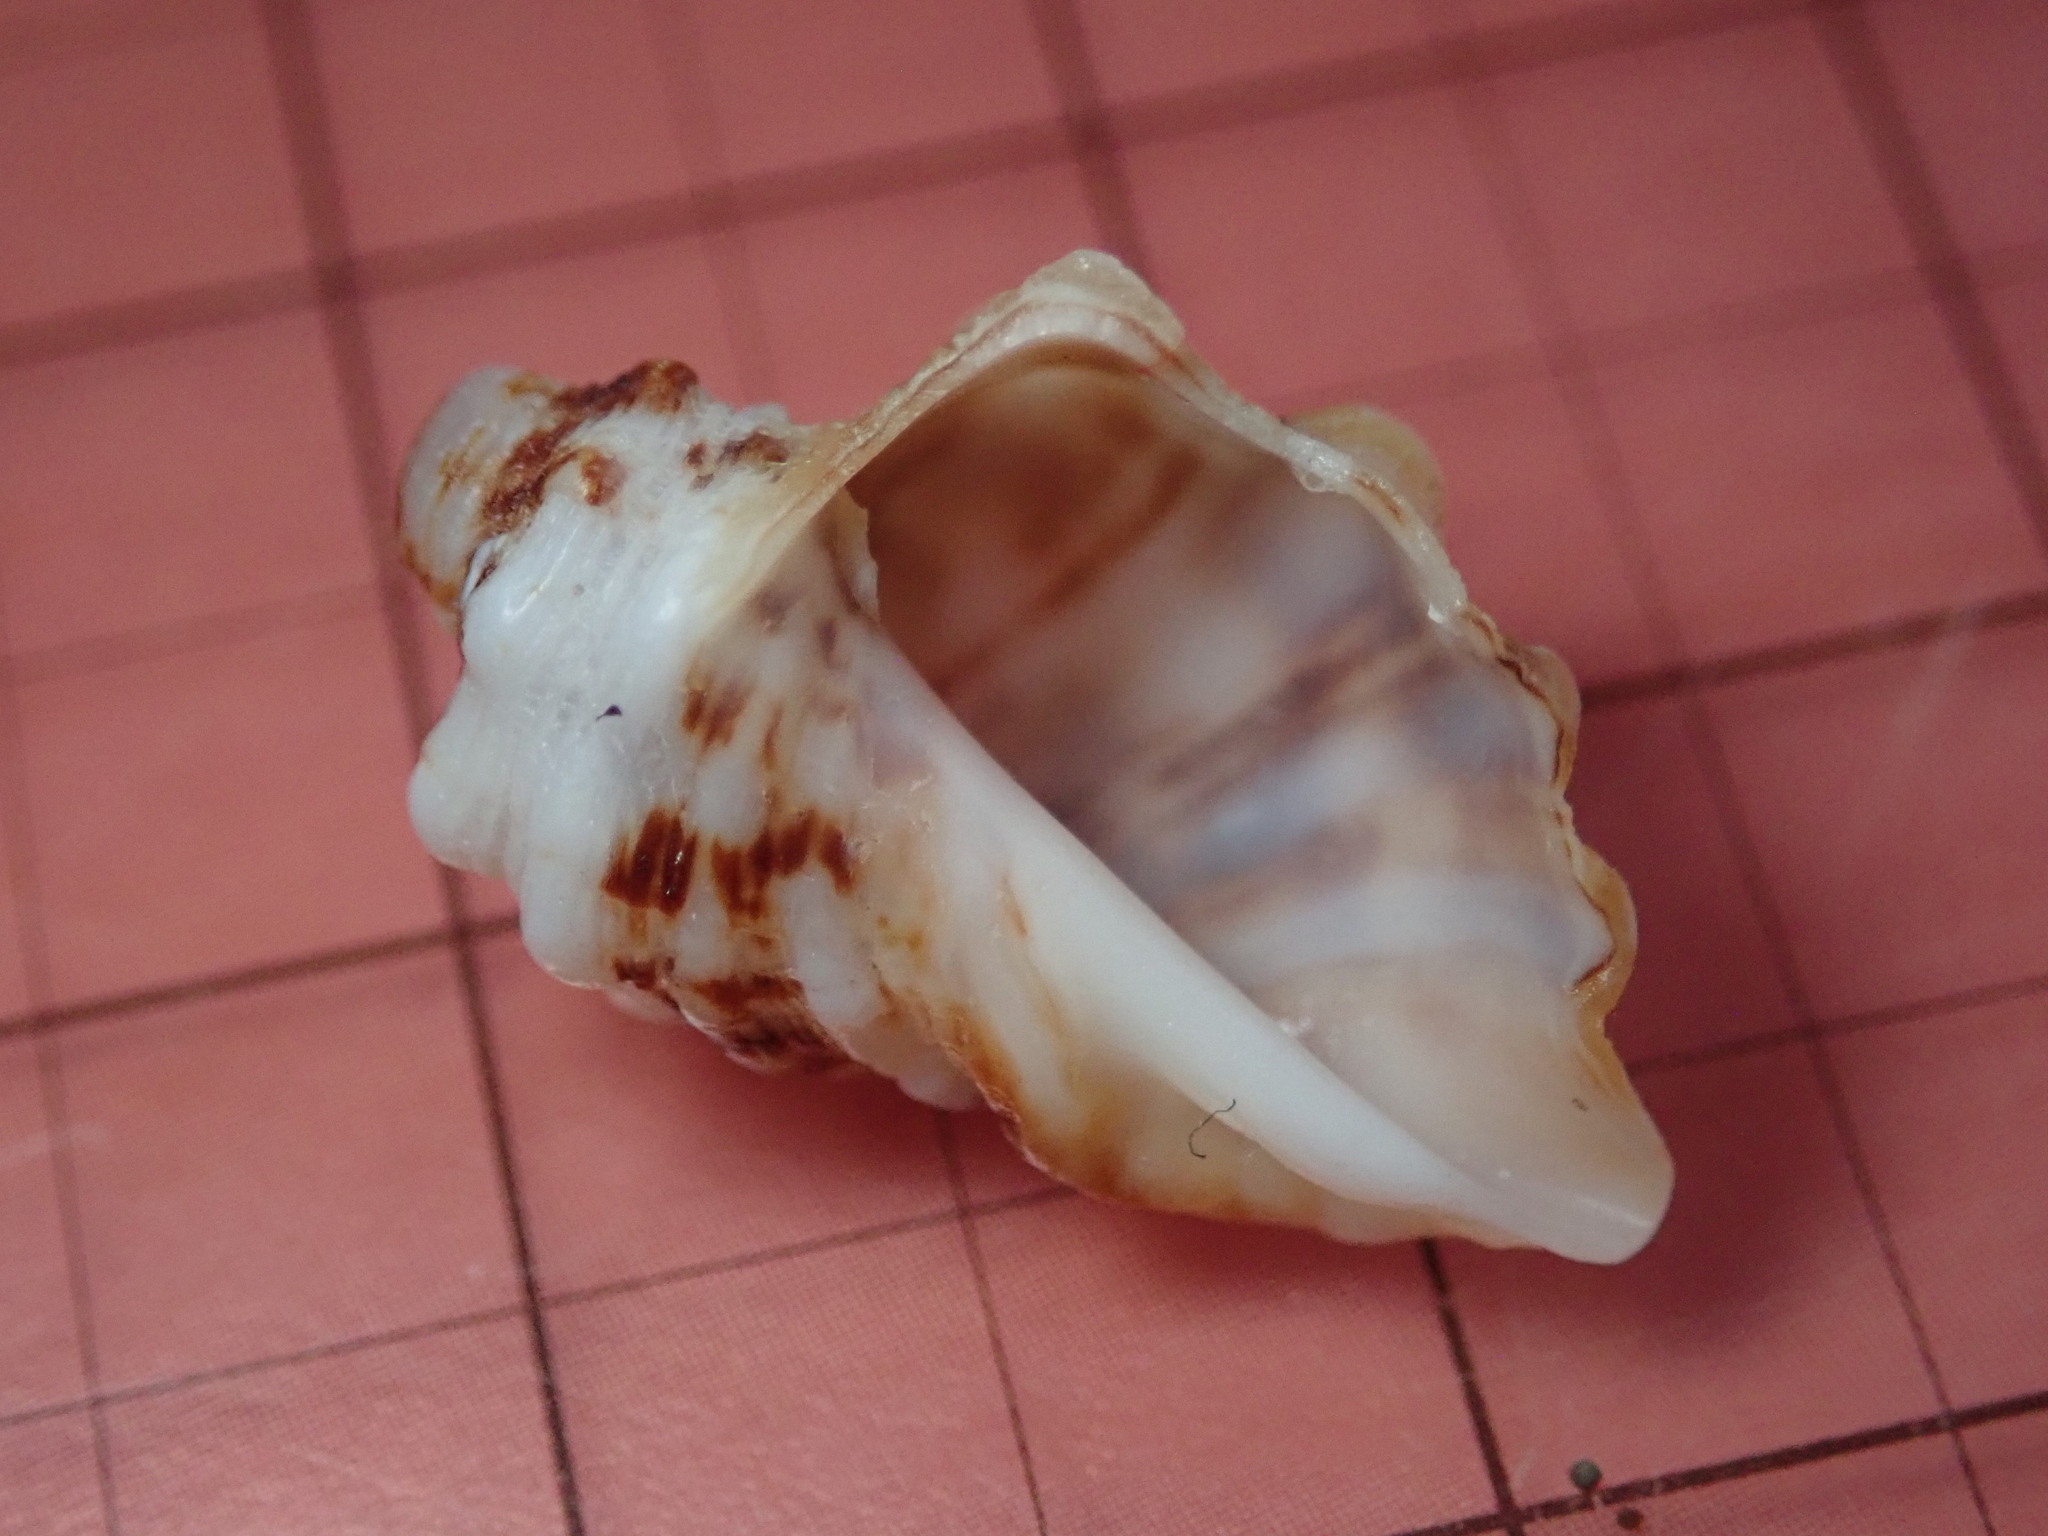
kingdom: Animalia
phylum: Mollusca
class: Gastropoda
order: Neogastropoda
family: Muricidae
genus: Neorapana
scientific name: Neorapana tuberculata
